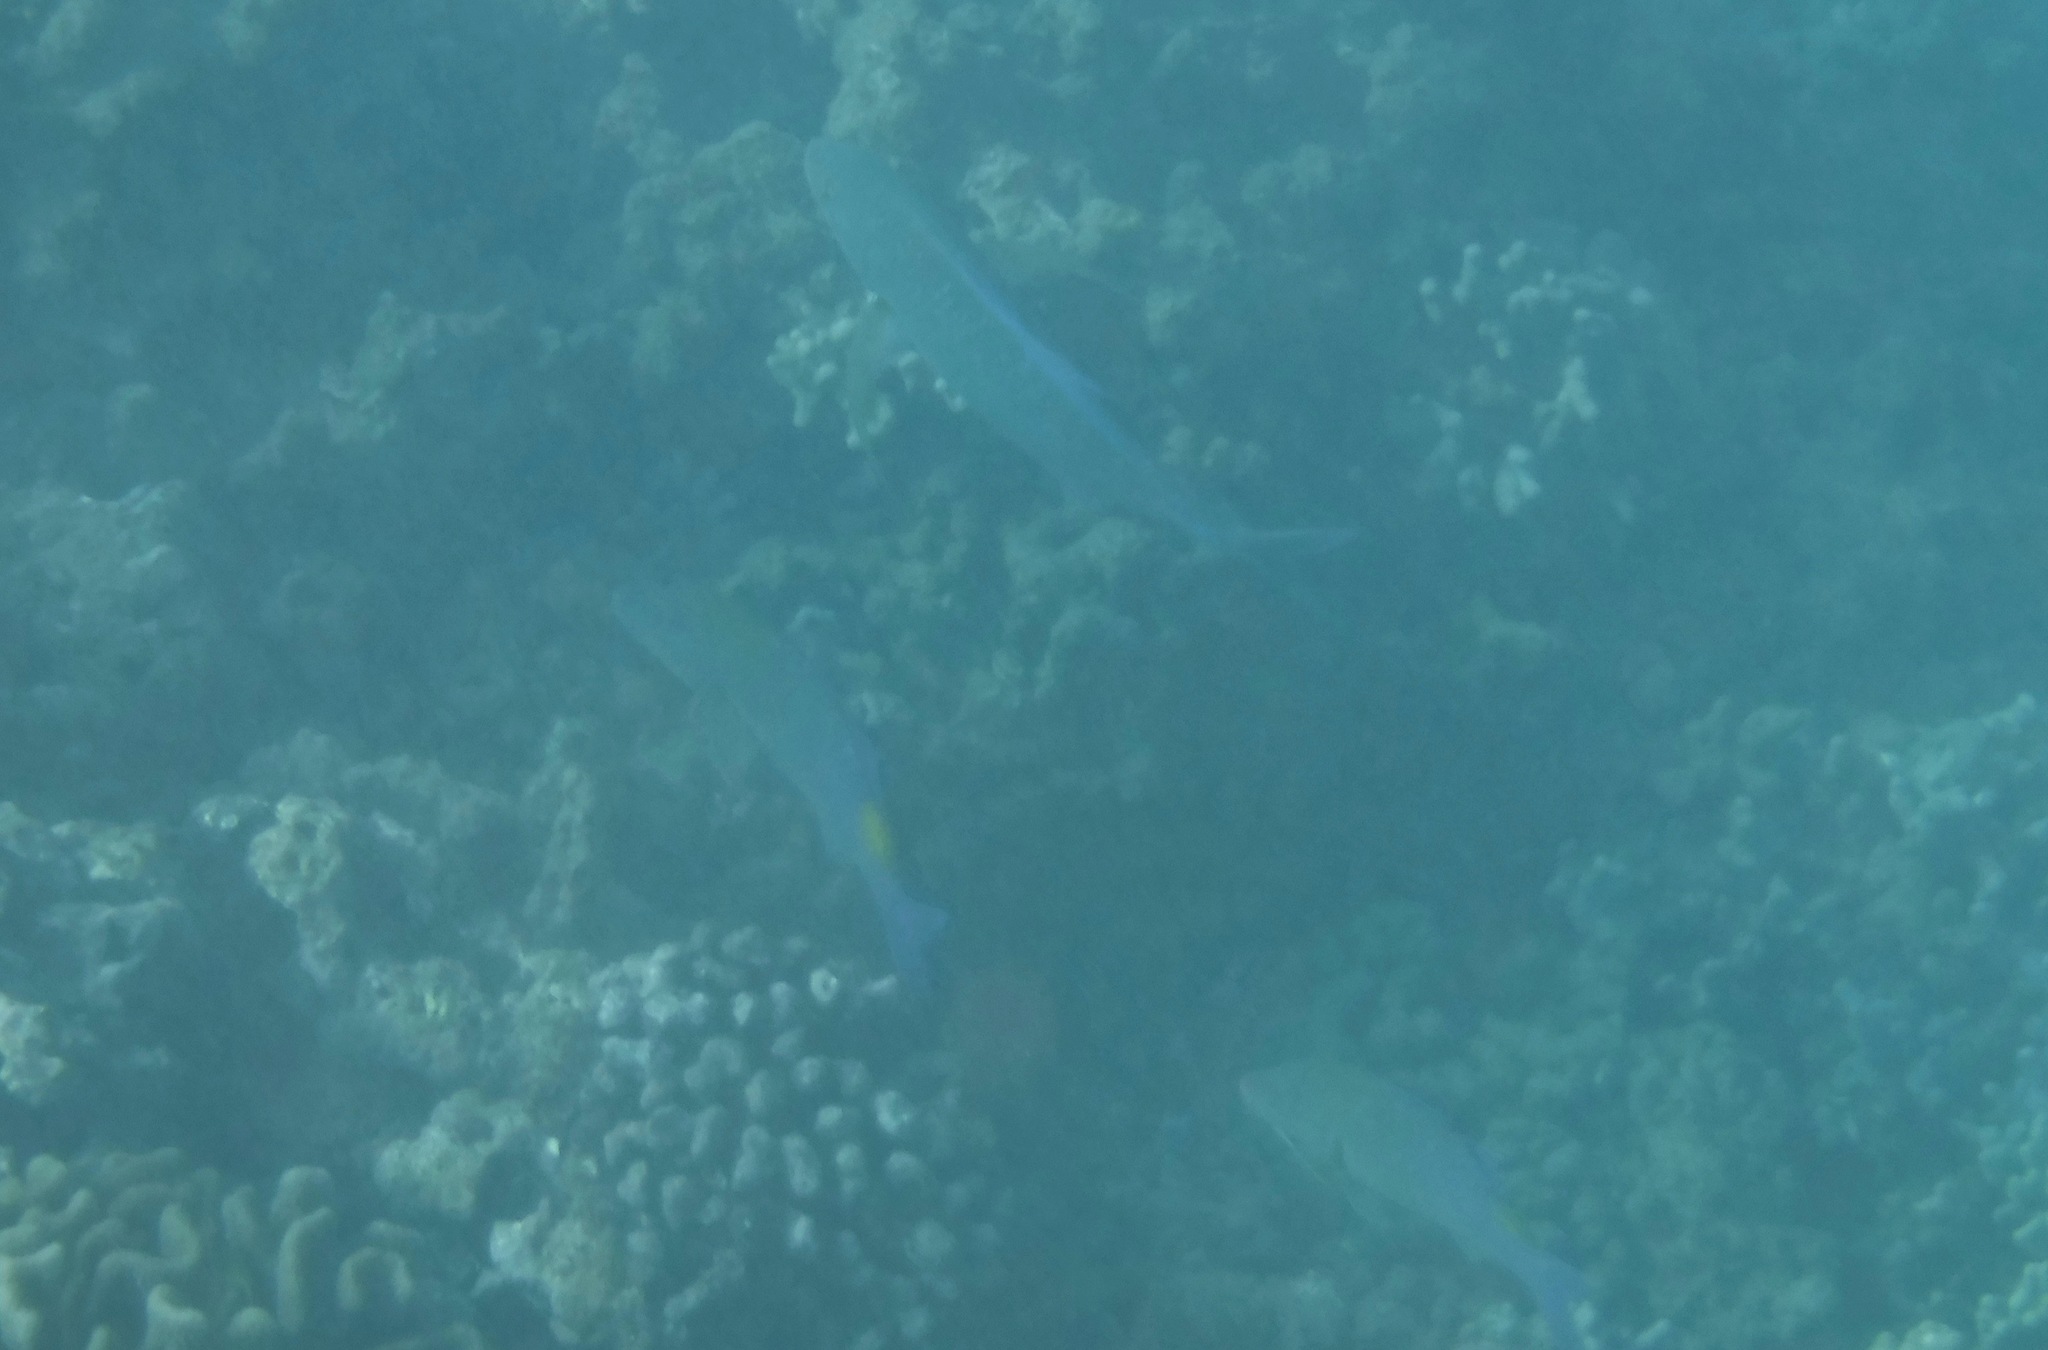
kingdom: Animalia
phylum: Chordata
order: Perciformes
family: Mullidae
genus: Parupeneus
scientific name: Parupeneus cyclostomus
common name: Goldsaddle goatfish
